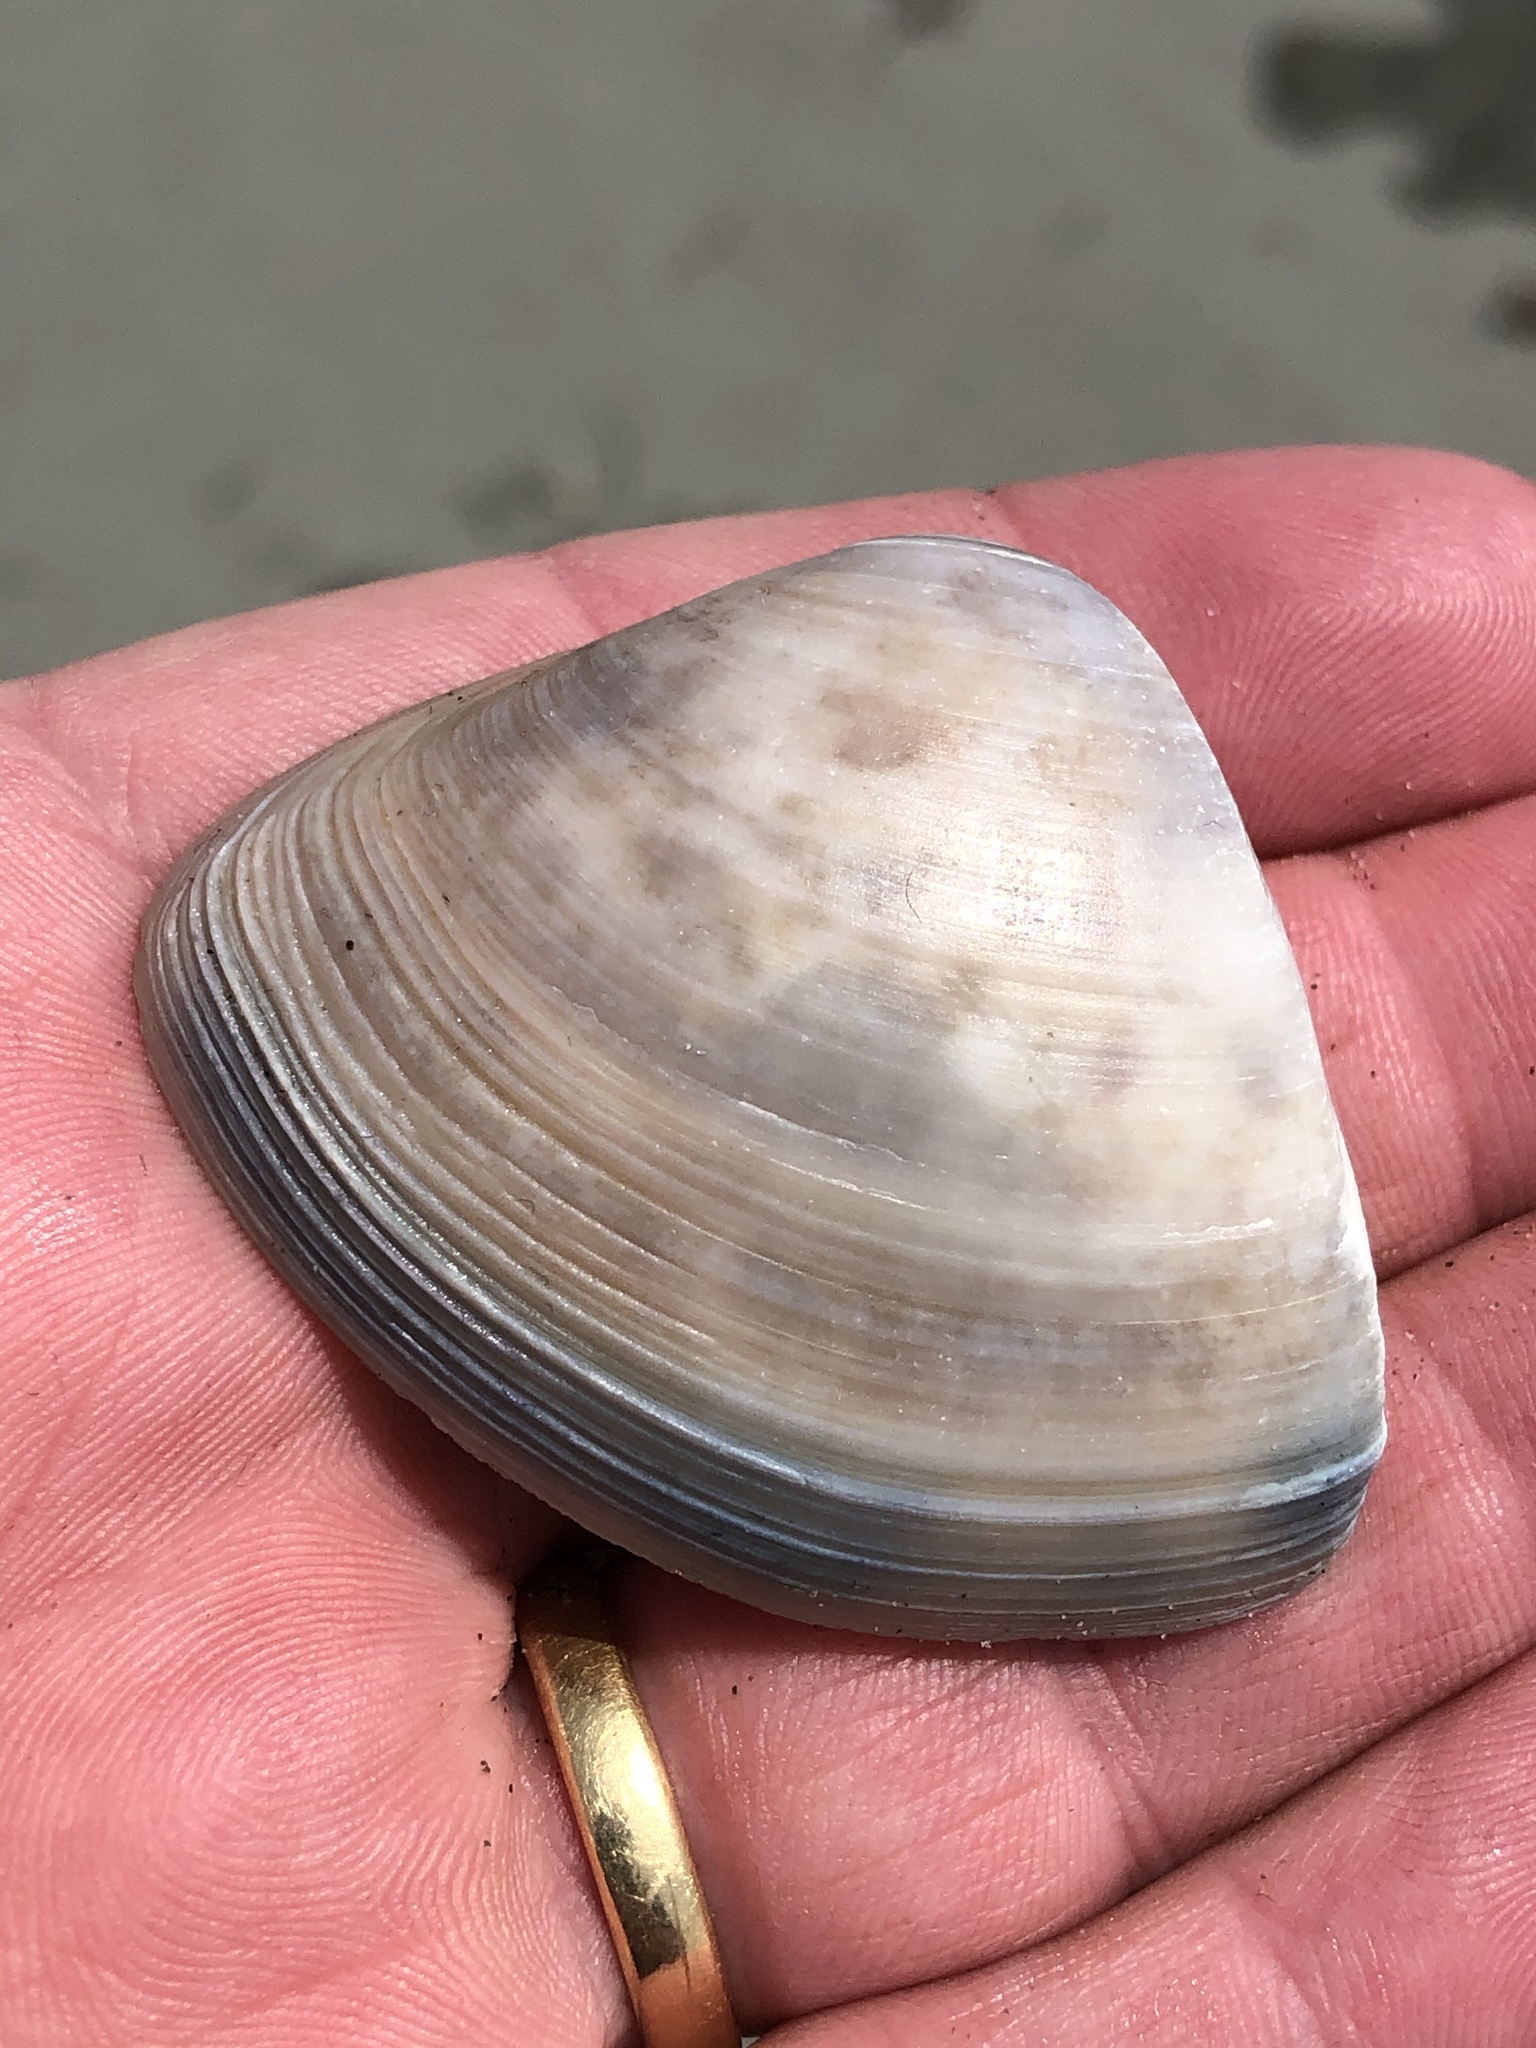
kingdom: Animalia
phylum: Mollusca
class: Bivalvia
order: Venerida
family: Mactridae
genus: Crassula
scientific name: Crassula aequilatera
